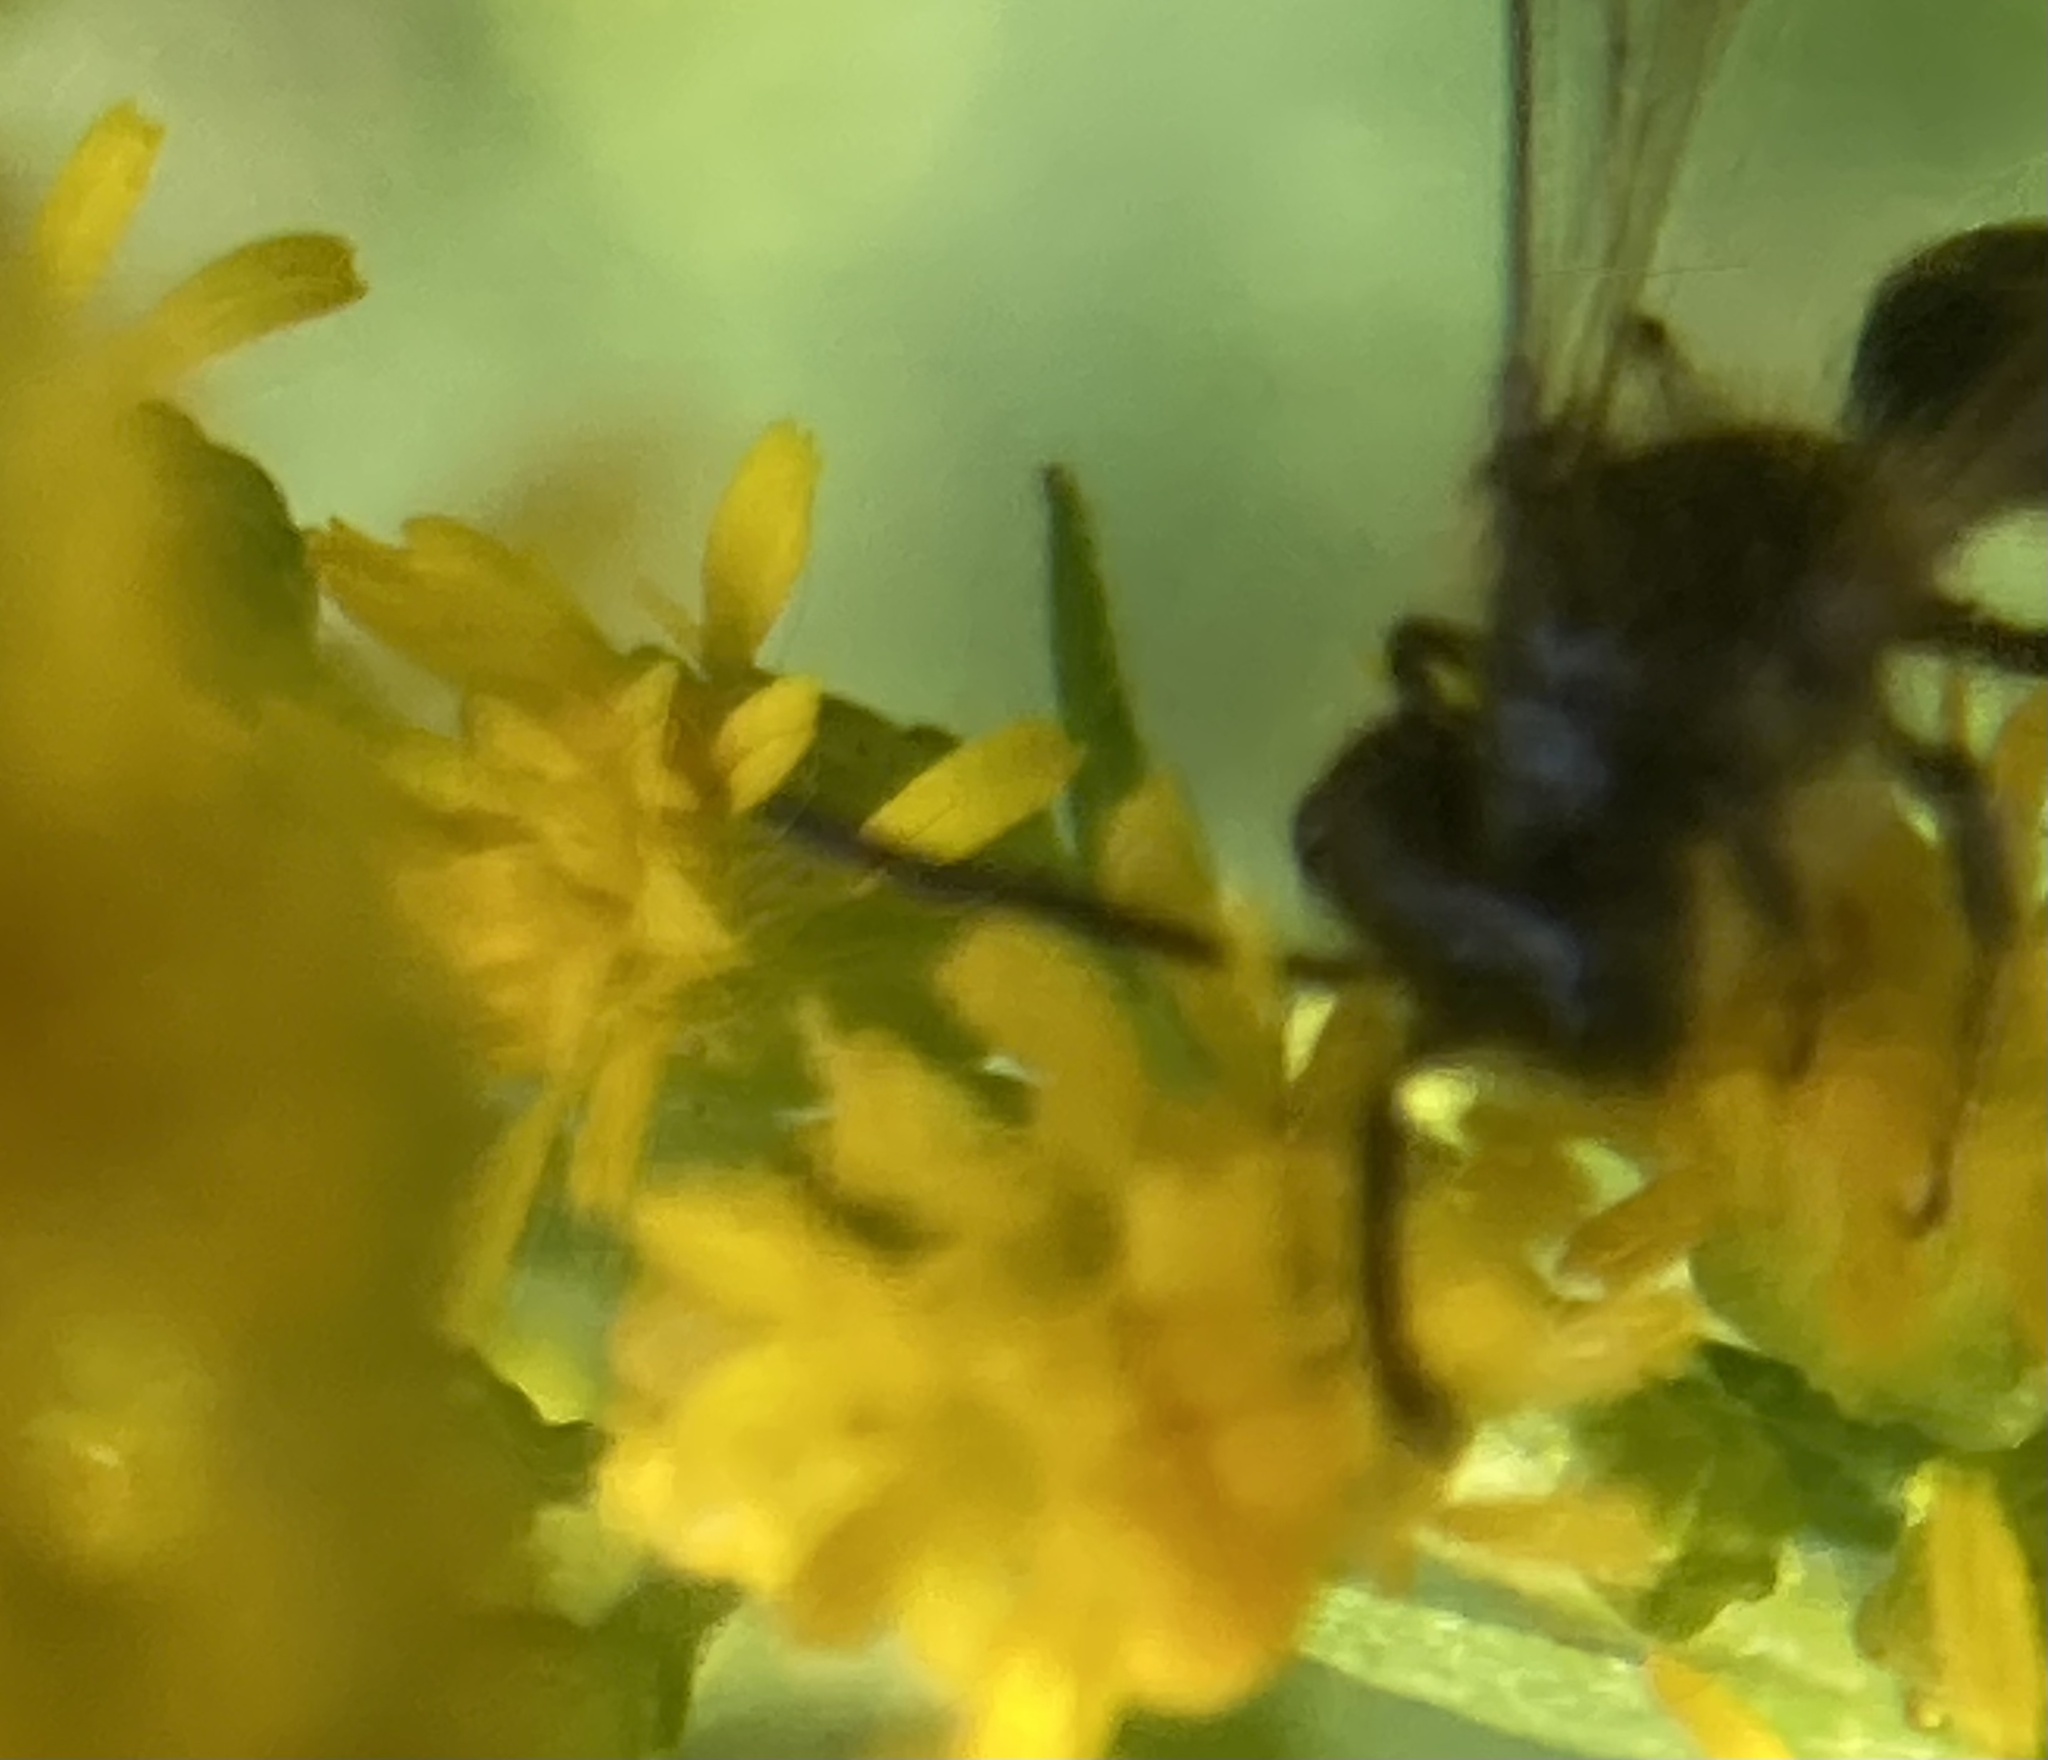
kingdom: Animalia
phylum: Arthropoda
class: Insecta
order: Hymenoptera
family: Andrenidae
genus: Andrena
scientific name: Andrena nubecula
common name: Cloudy-winged mining bee
